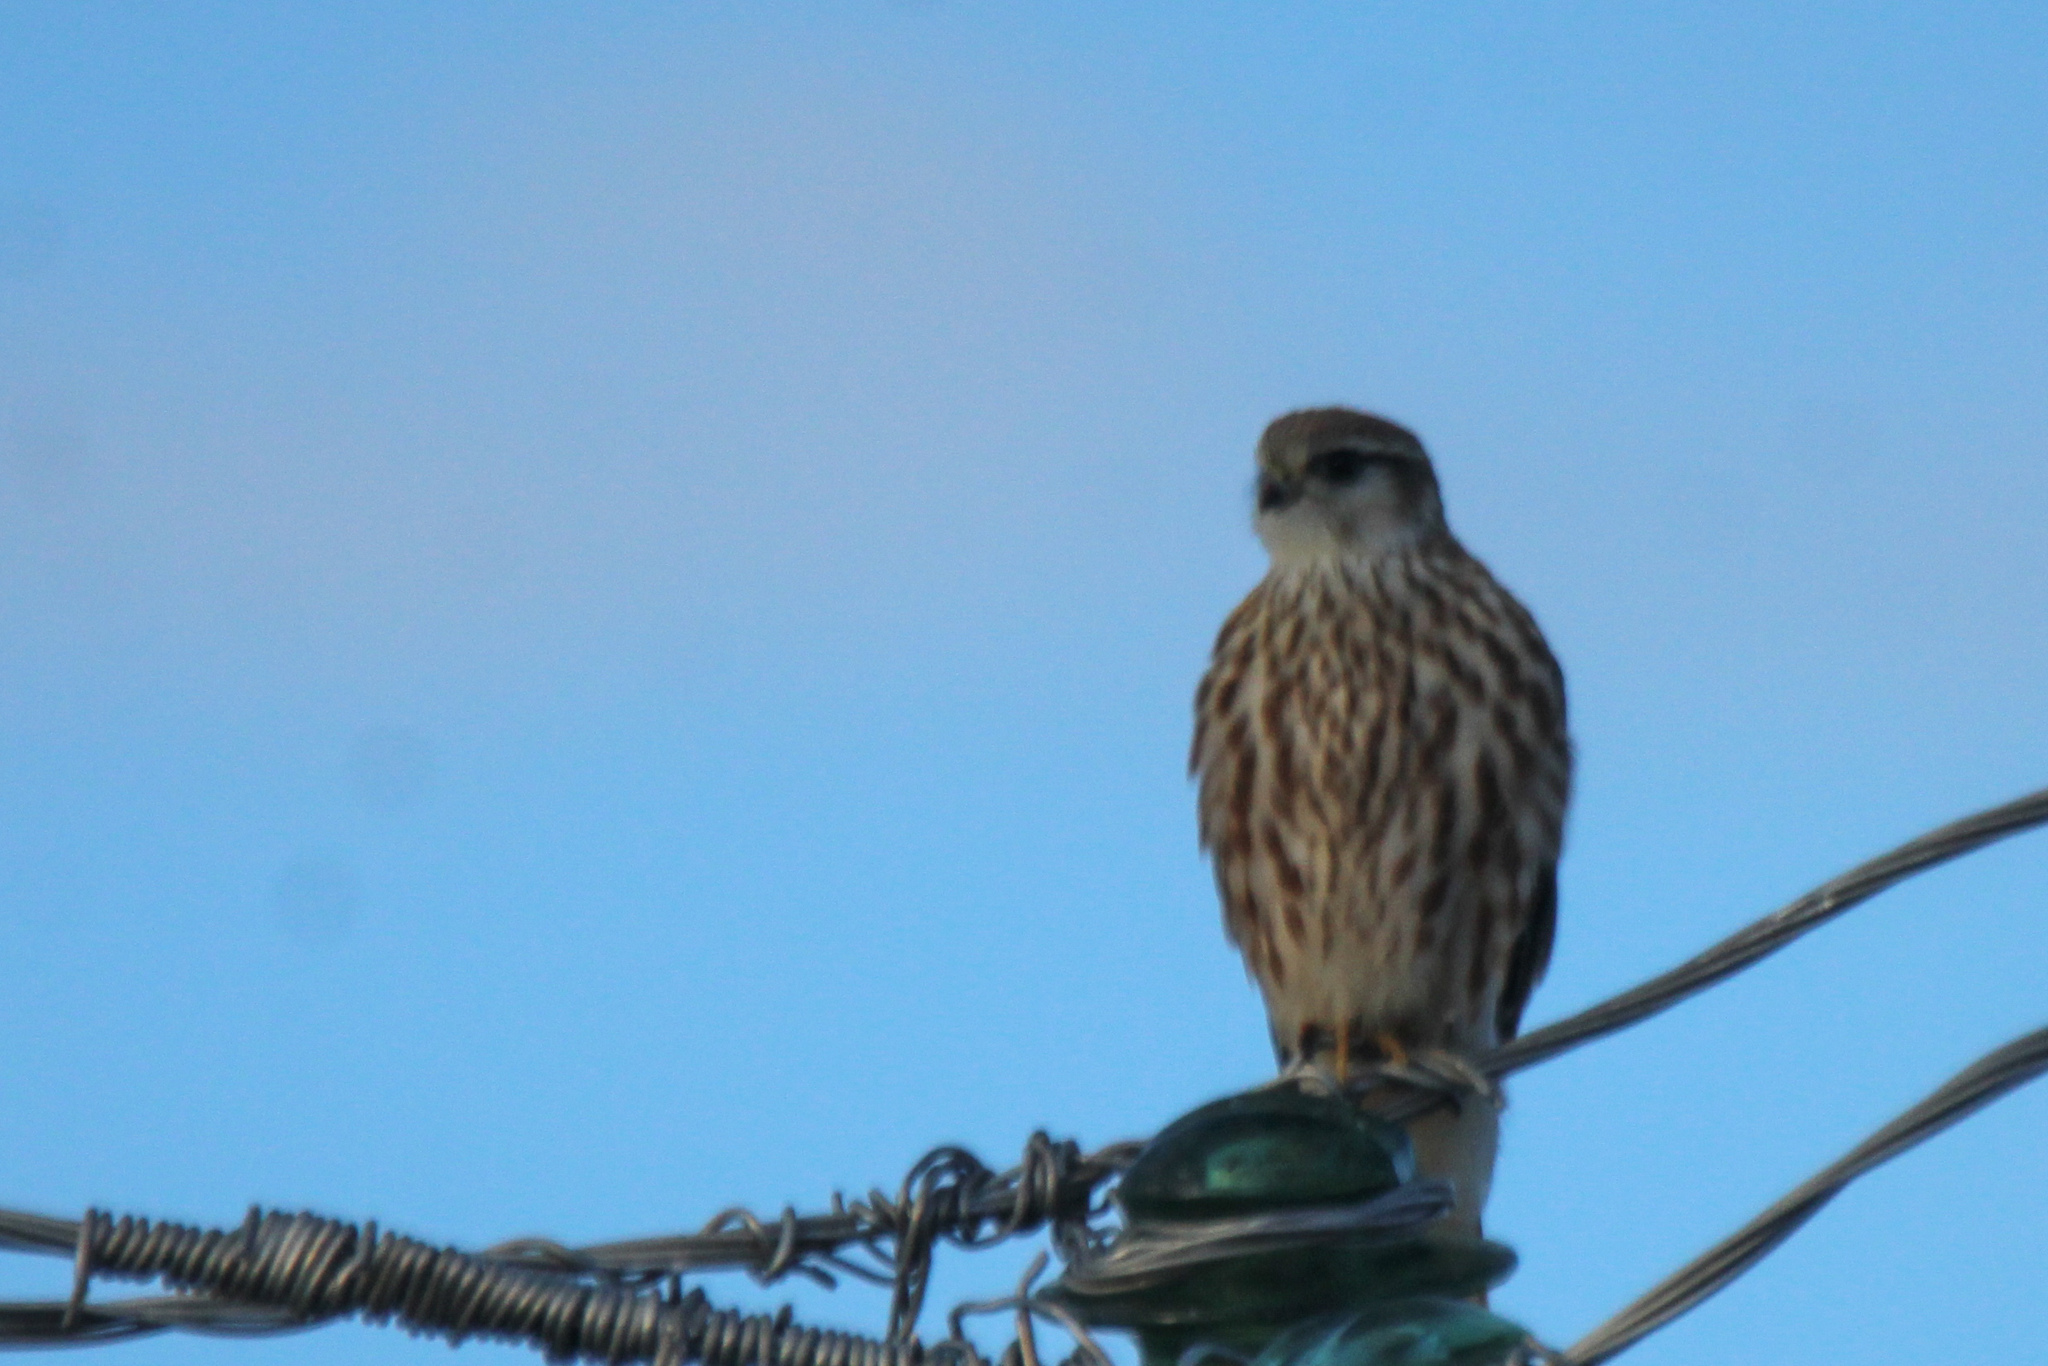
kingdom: Animalia
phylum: Chordata
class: Aves
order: Falconiformes
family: Falconidae
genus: Falco
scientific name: Falco columbarius
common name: Merlin
